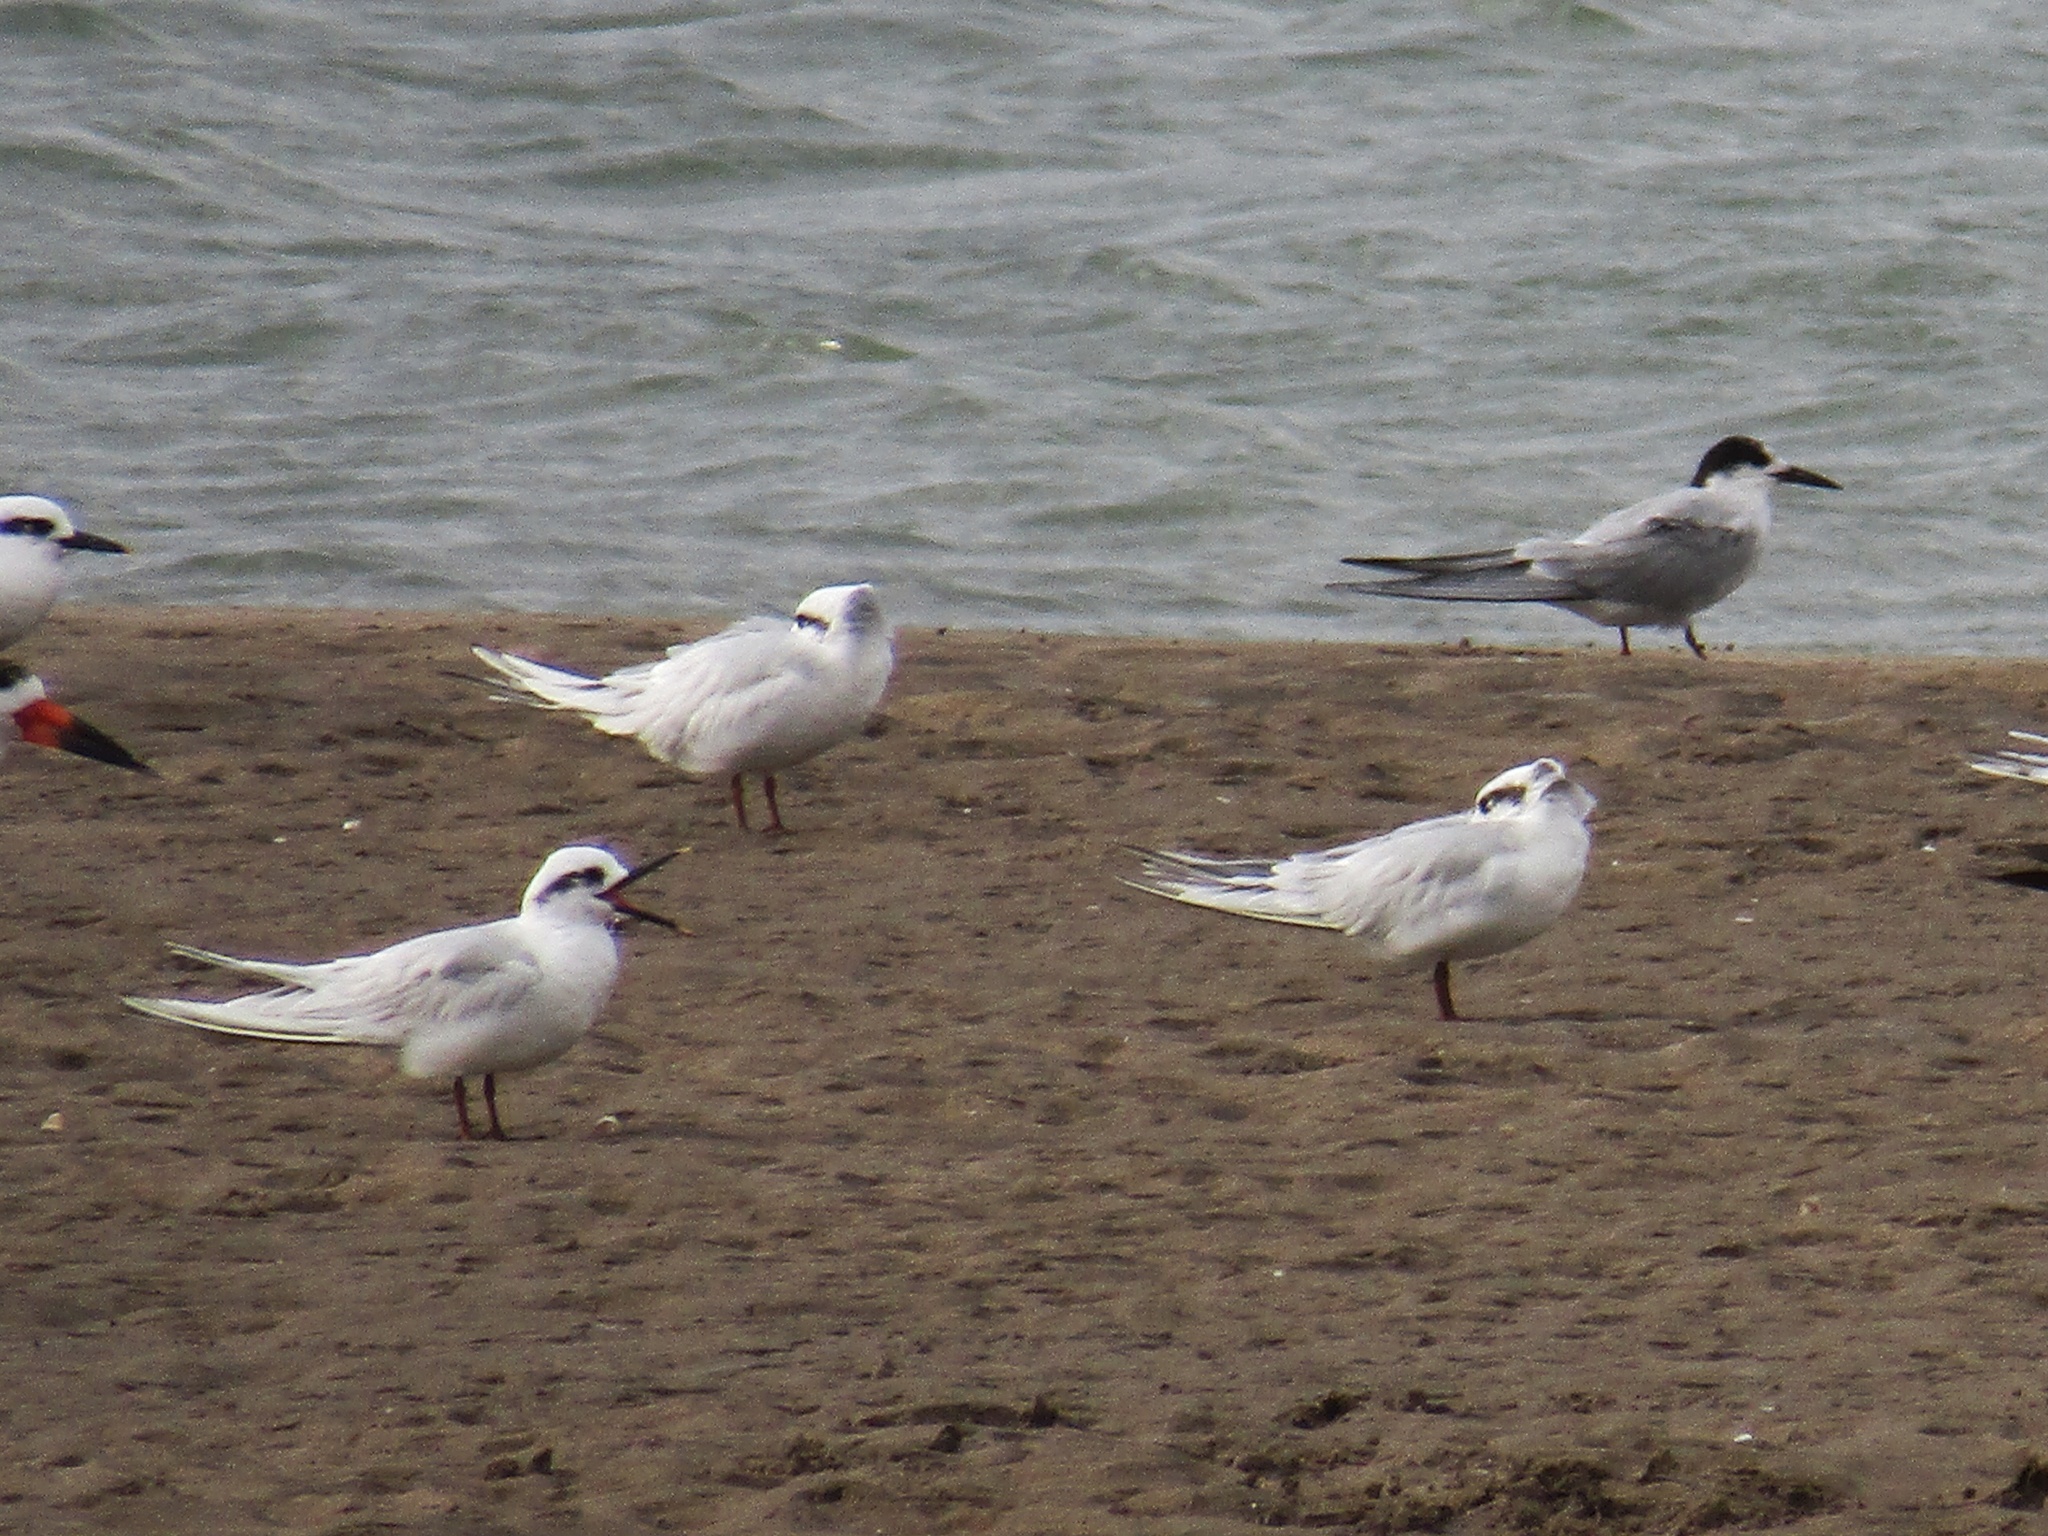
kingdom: Animalia
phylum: Chordata
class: Aves
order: Charadriiformes
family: Laridae
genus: Sterna
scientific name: Sterna trudeaui
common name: Snowy-crowned tern
